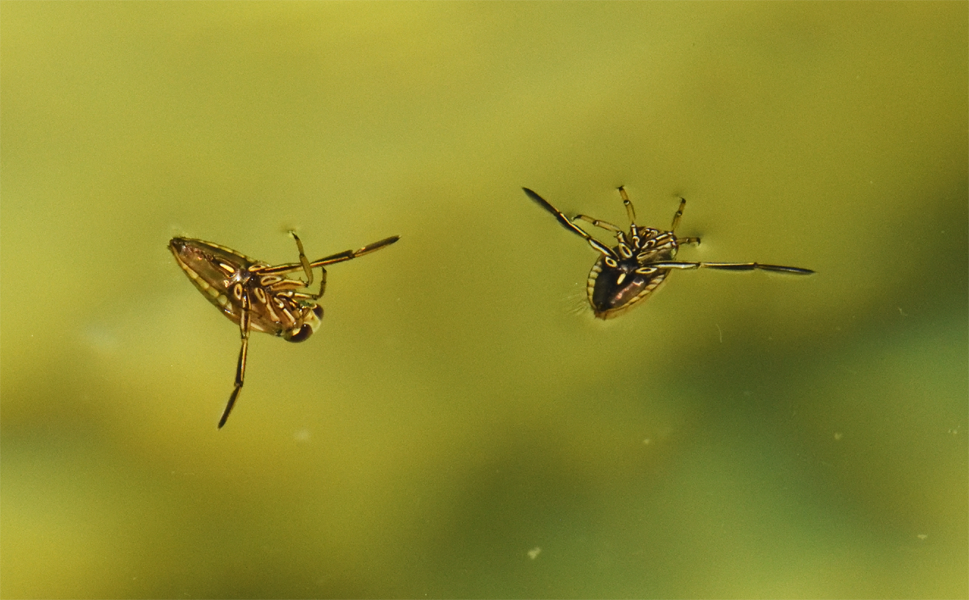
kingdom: Animalia
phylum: Arthropoda
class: Insecta
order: Hemiptera
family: Notonectidae
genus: Notonecta
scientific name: Notonecta
